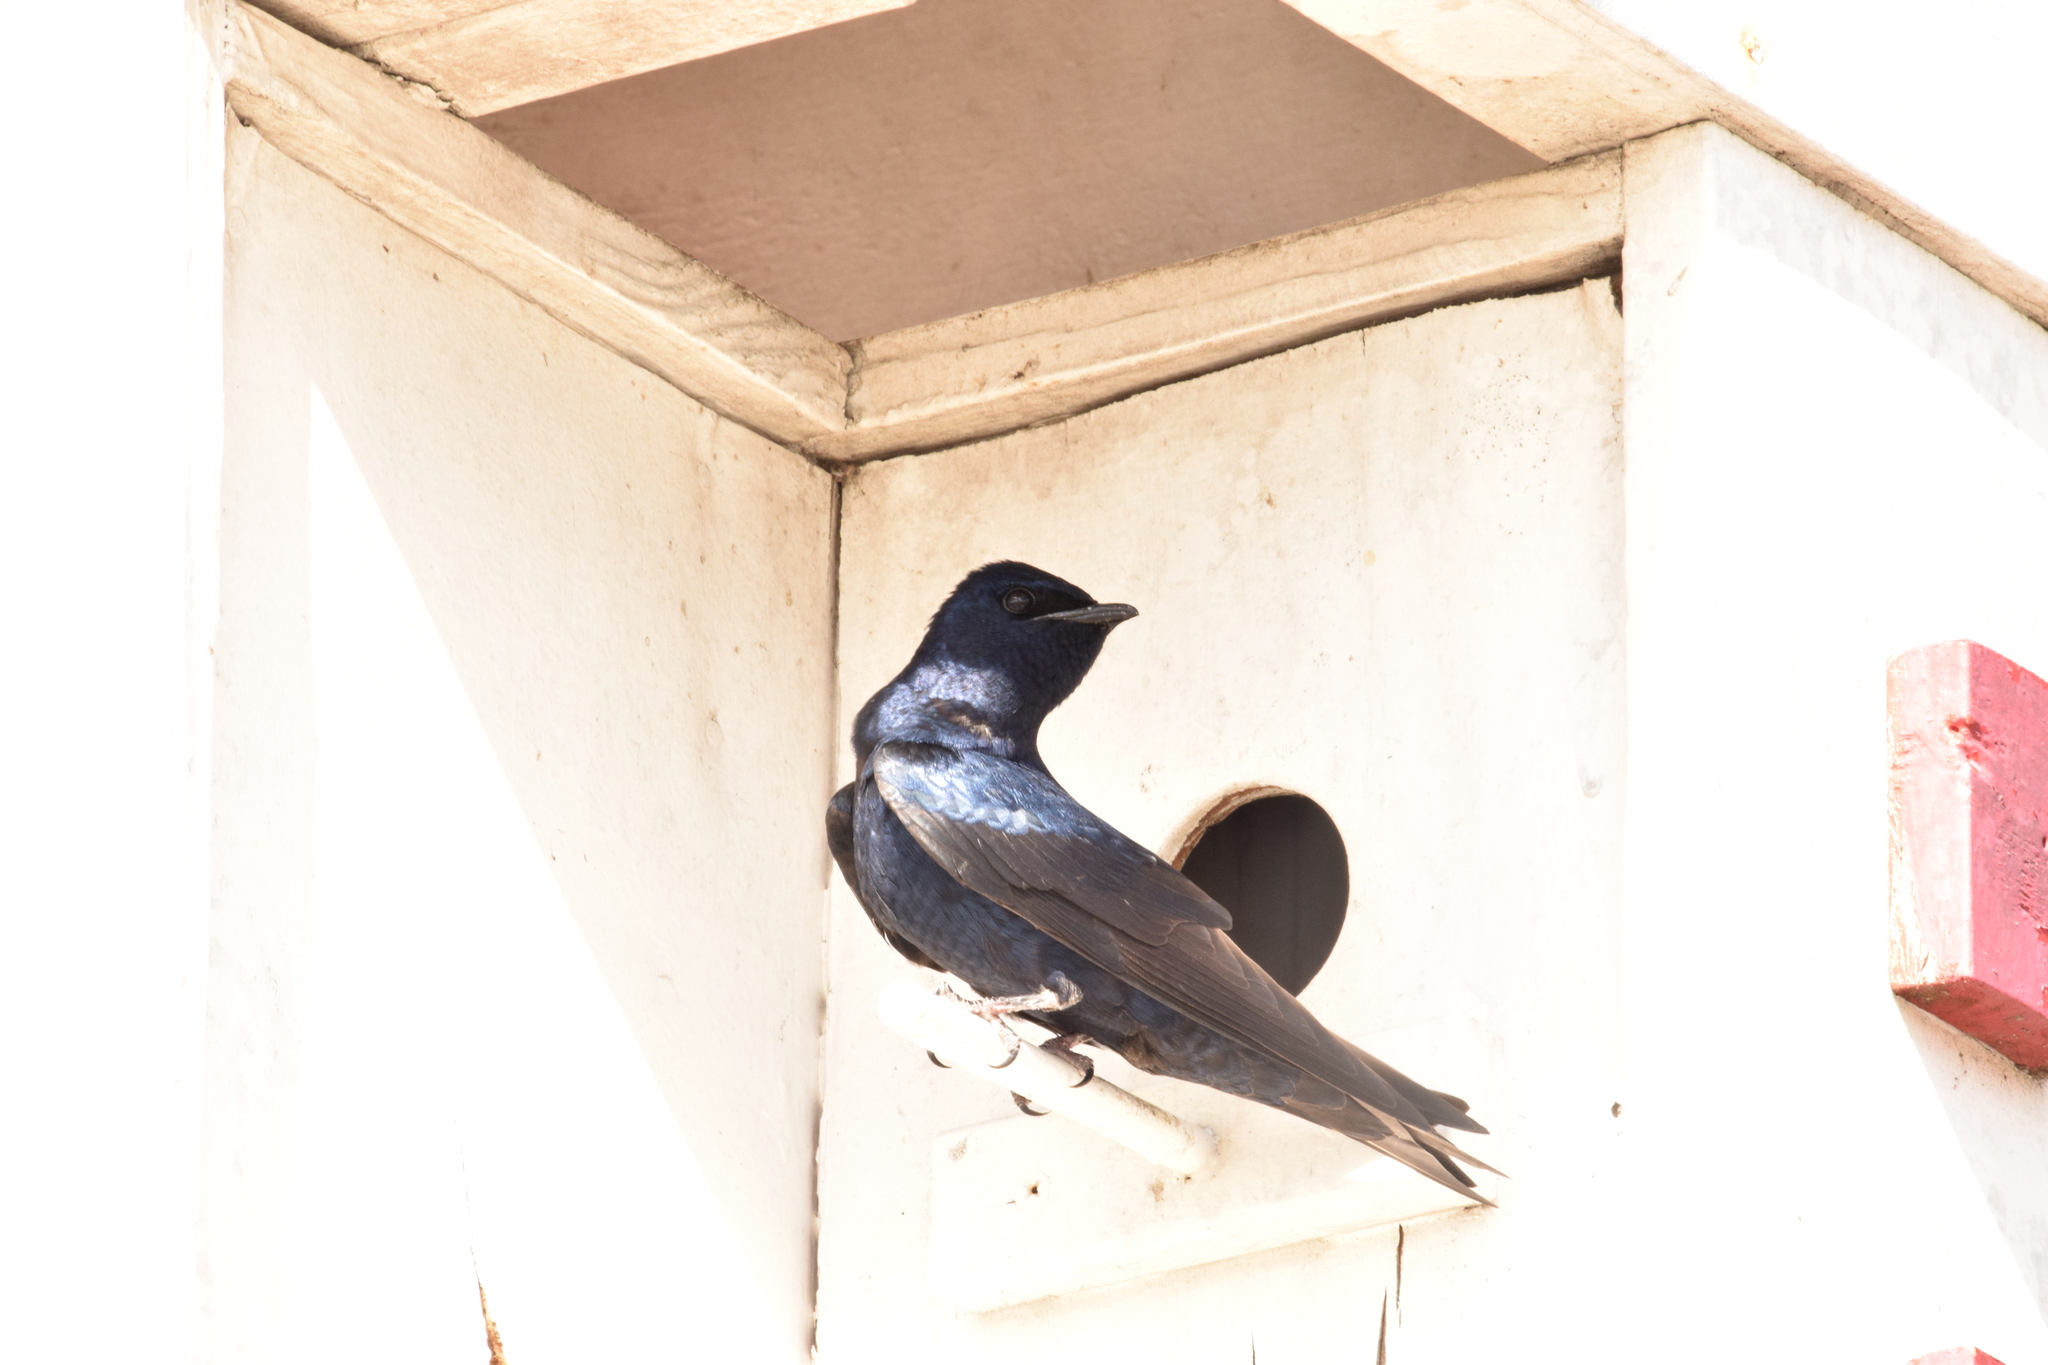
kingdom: Animalia
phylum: Chordata
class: Aves
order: Passeriformes
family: Hirundinidae
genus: Progne
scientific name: Progne subis
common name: Purple martin
